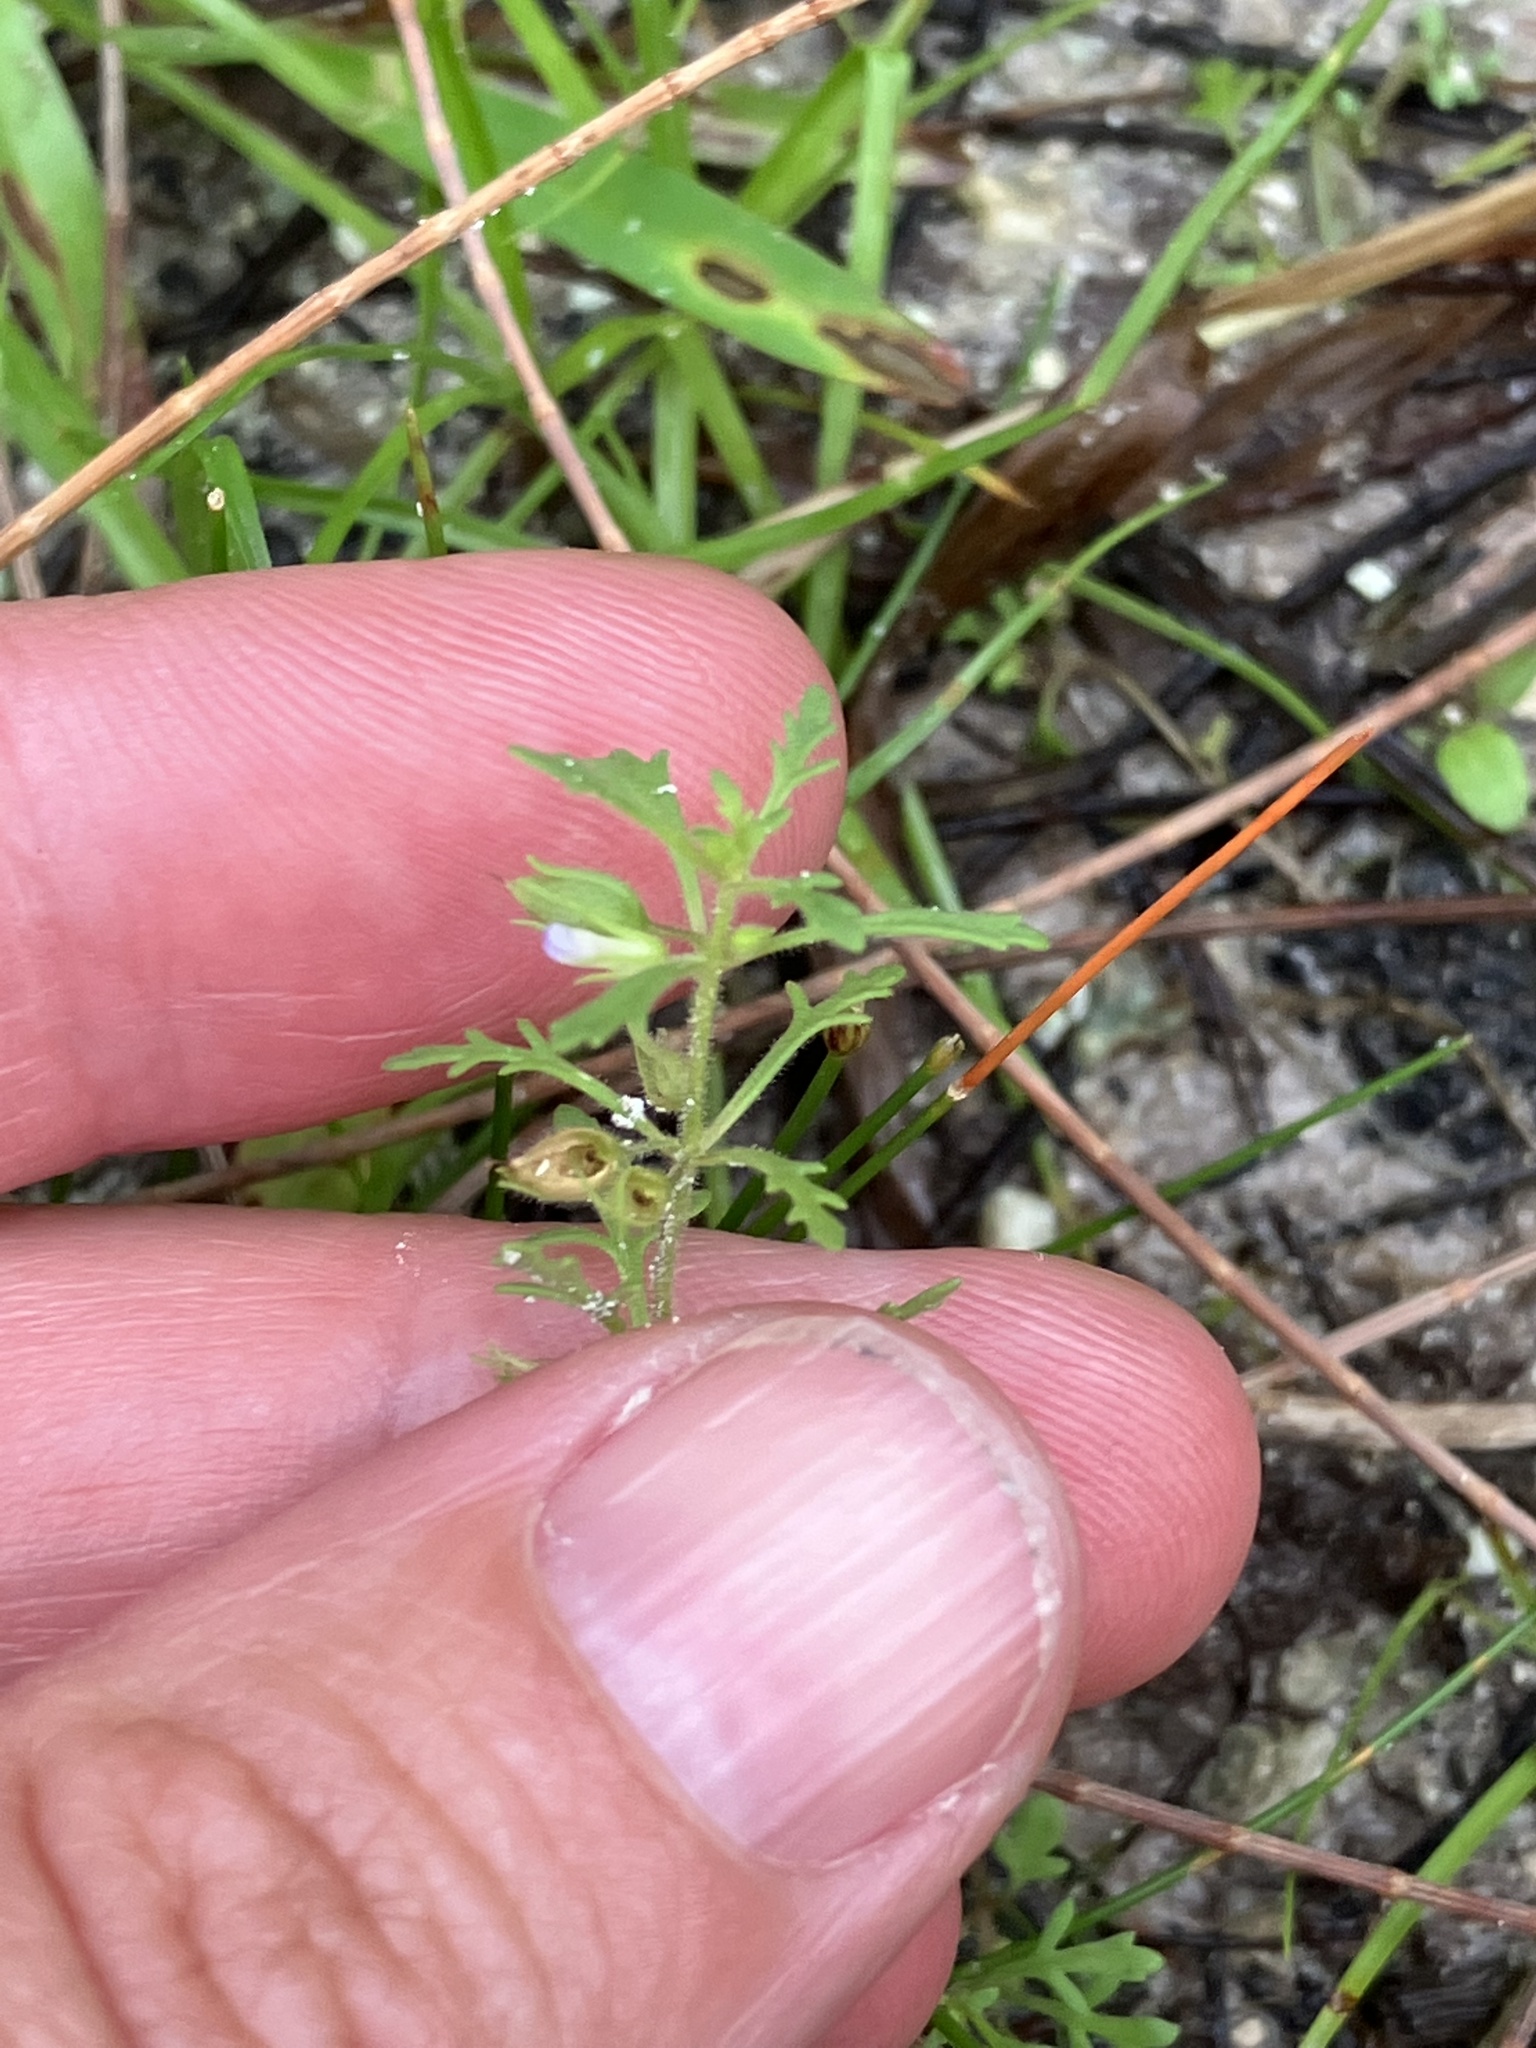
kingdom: Plantae
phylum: Tracheophyta
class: Magnoliopsida
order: Lamiales
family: Plantaginaceae
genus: Leucospora
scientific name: Leucospora multifida
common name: Narrow-leaf paleseed
